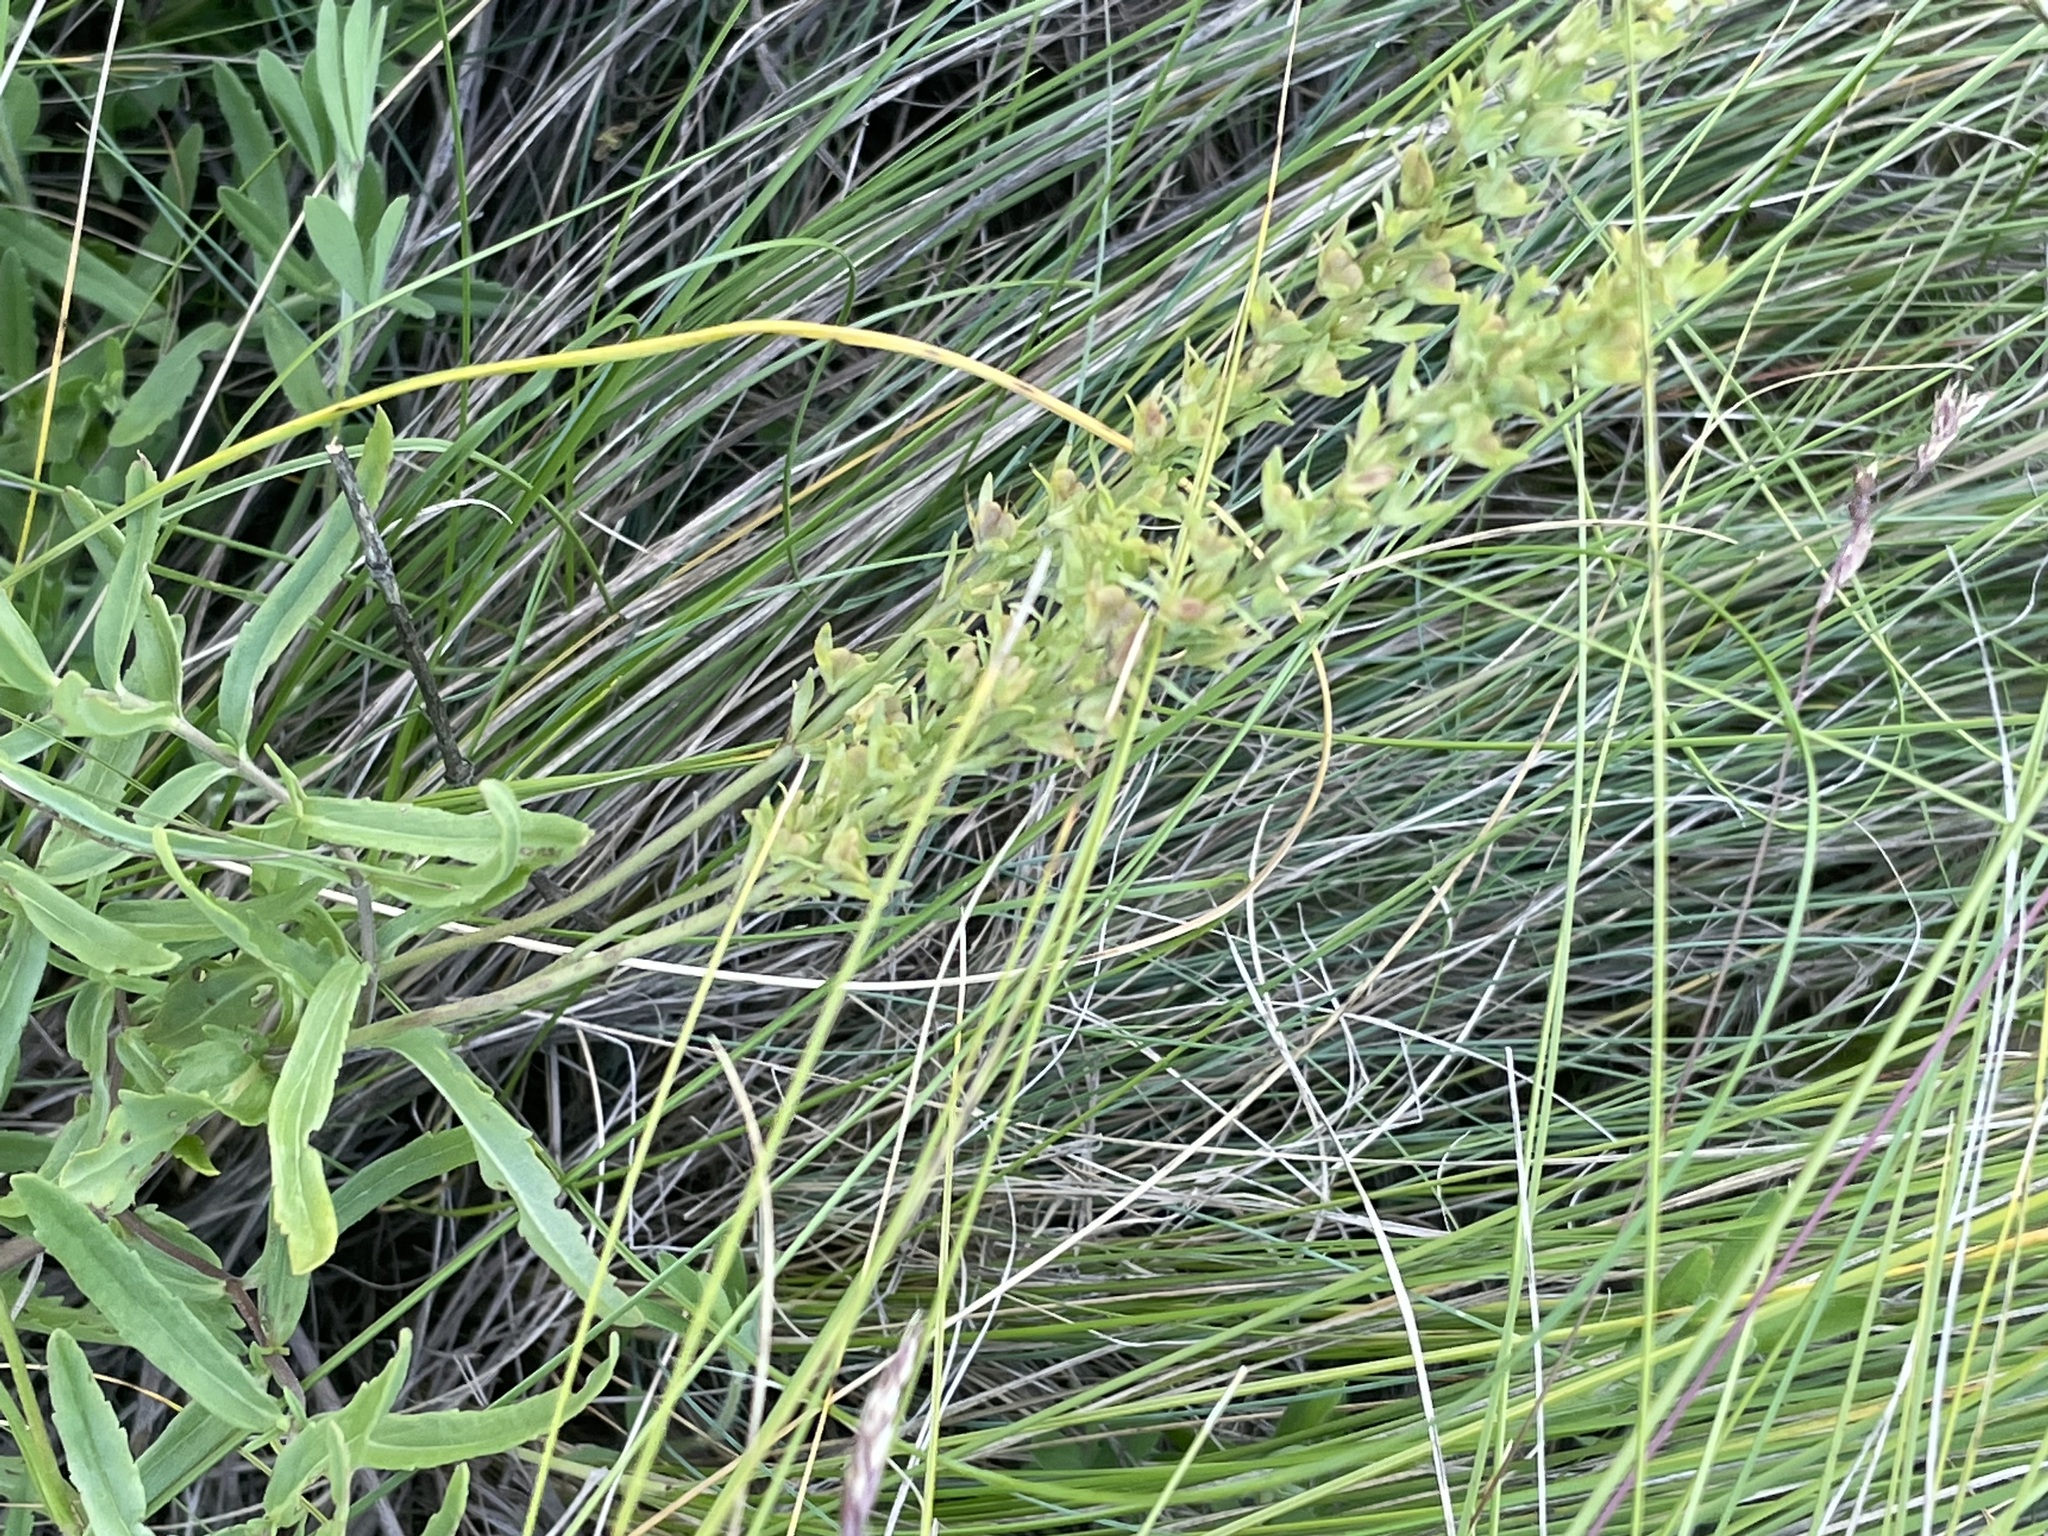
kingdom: Plantae
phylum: Tracheophyta
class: Magnoliopsida
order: Lamiales
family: Plantaginaceae
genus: Veronica
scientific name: Veronica prostrata
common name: Prostrate speedwell
